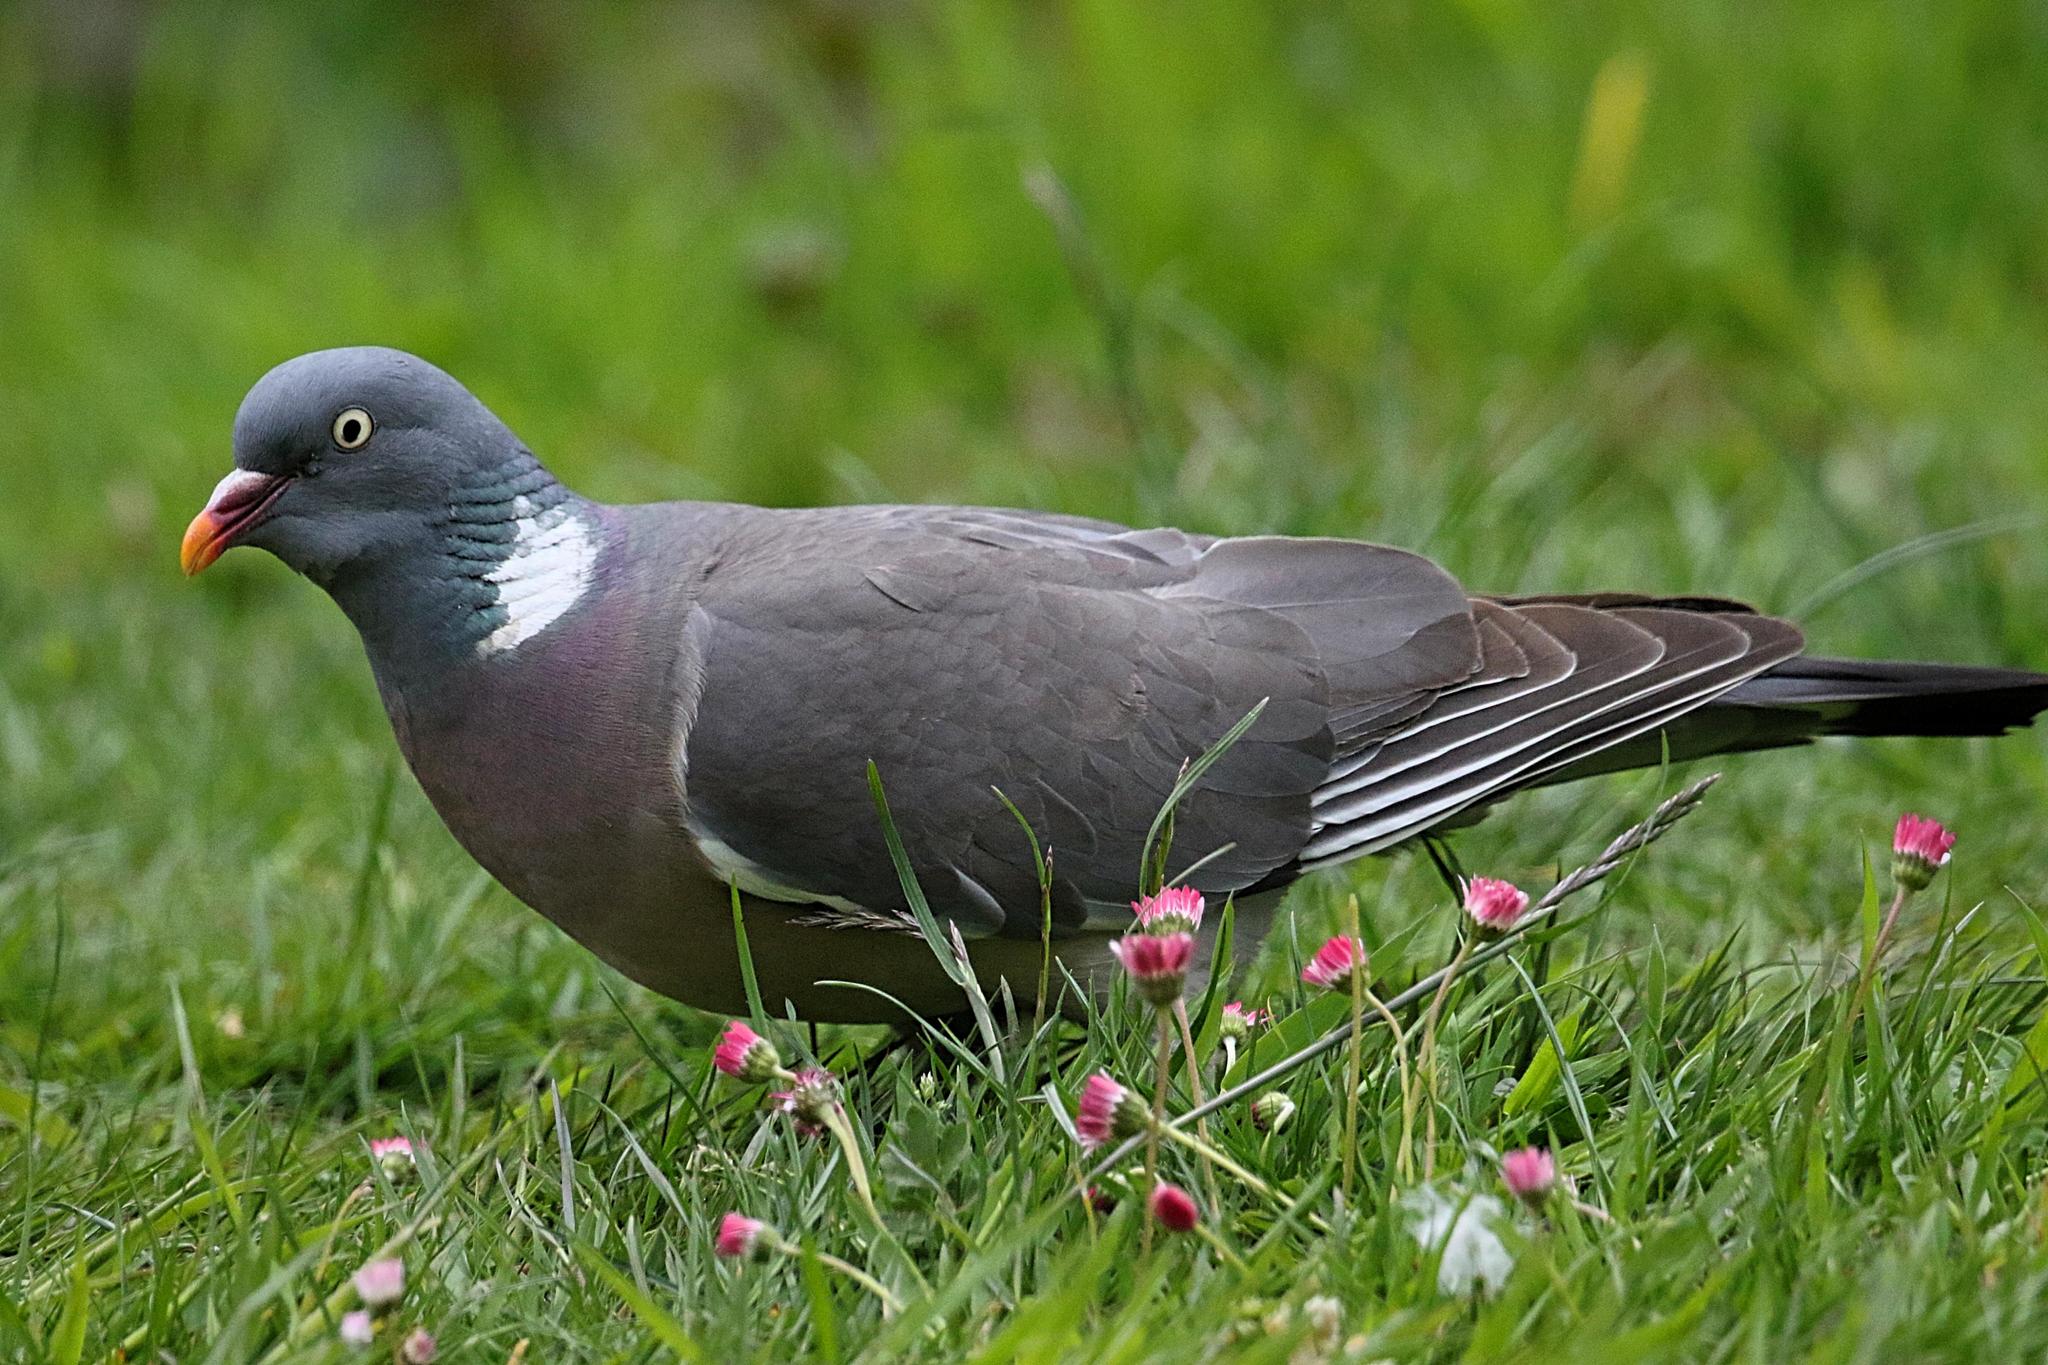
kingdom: Animalia
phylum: Chordata
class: Aves
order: Columbiformes
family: Columbidae
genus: Columba
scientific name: Columba palumbus
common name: Common wood pigeon
